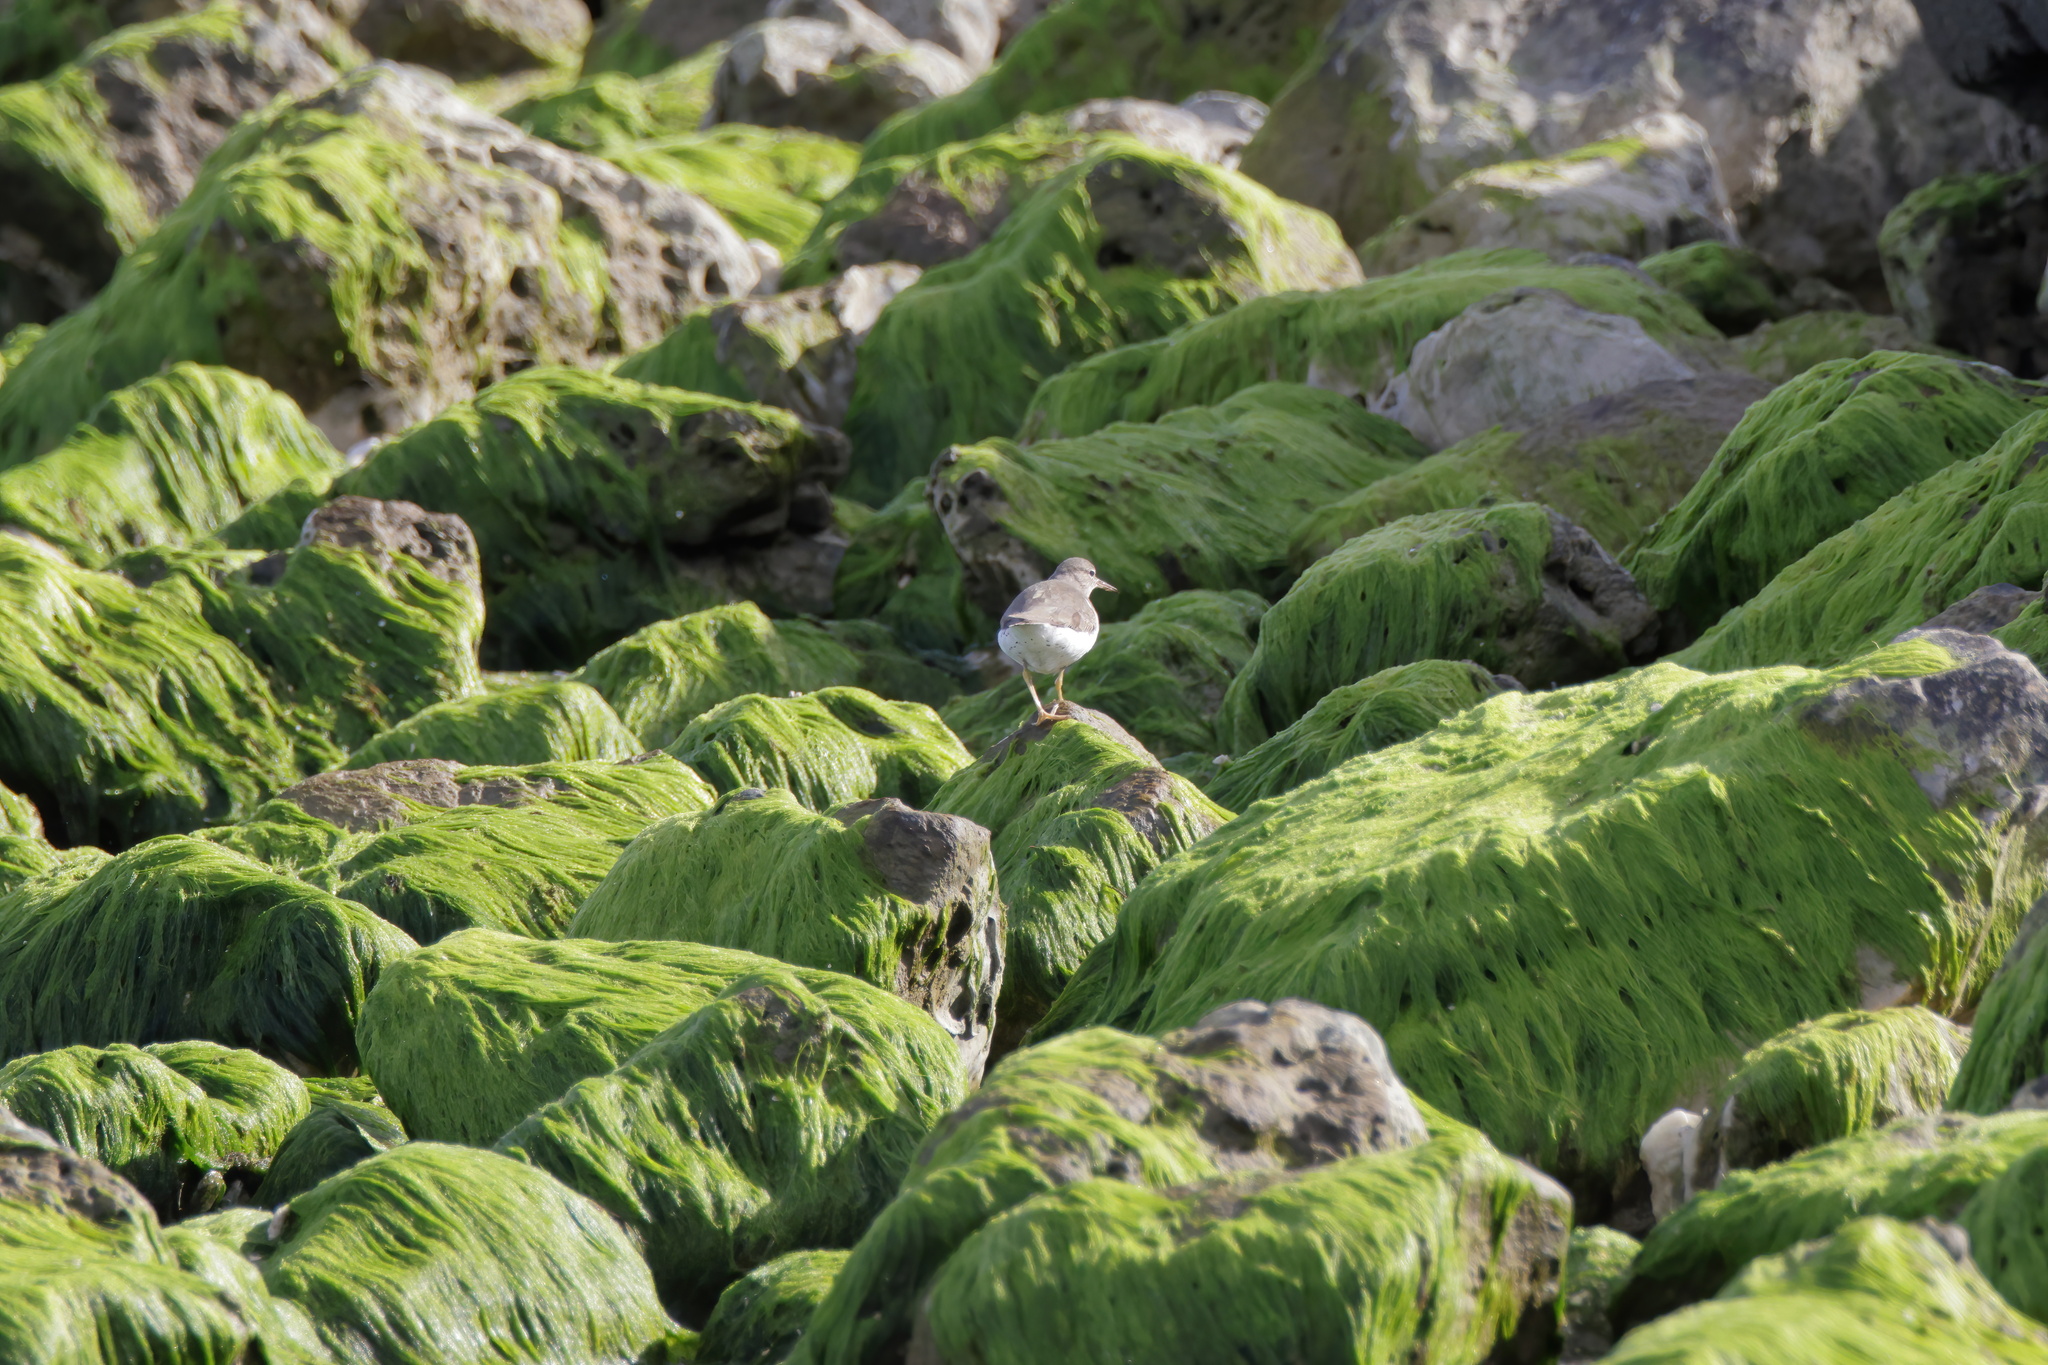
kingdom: Animalia
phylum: Chordata
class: Aves
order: Charadriiformes
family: Scolopacidae
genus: Actitis
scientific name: Actitis macularius
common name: Spotted sandpiper
